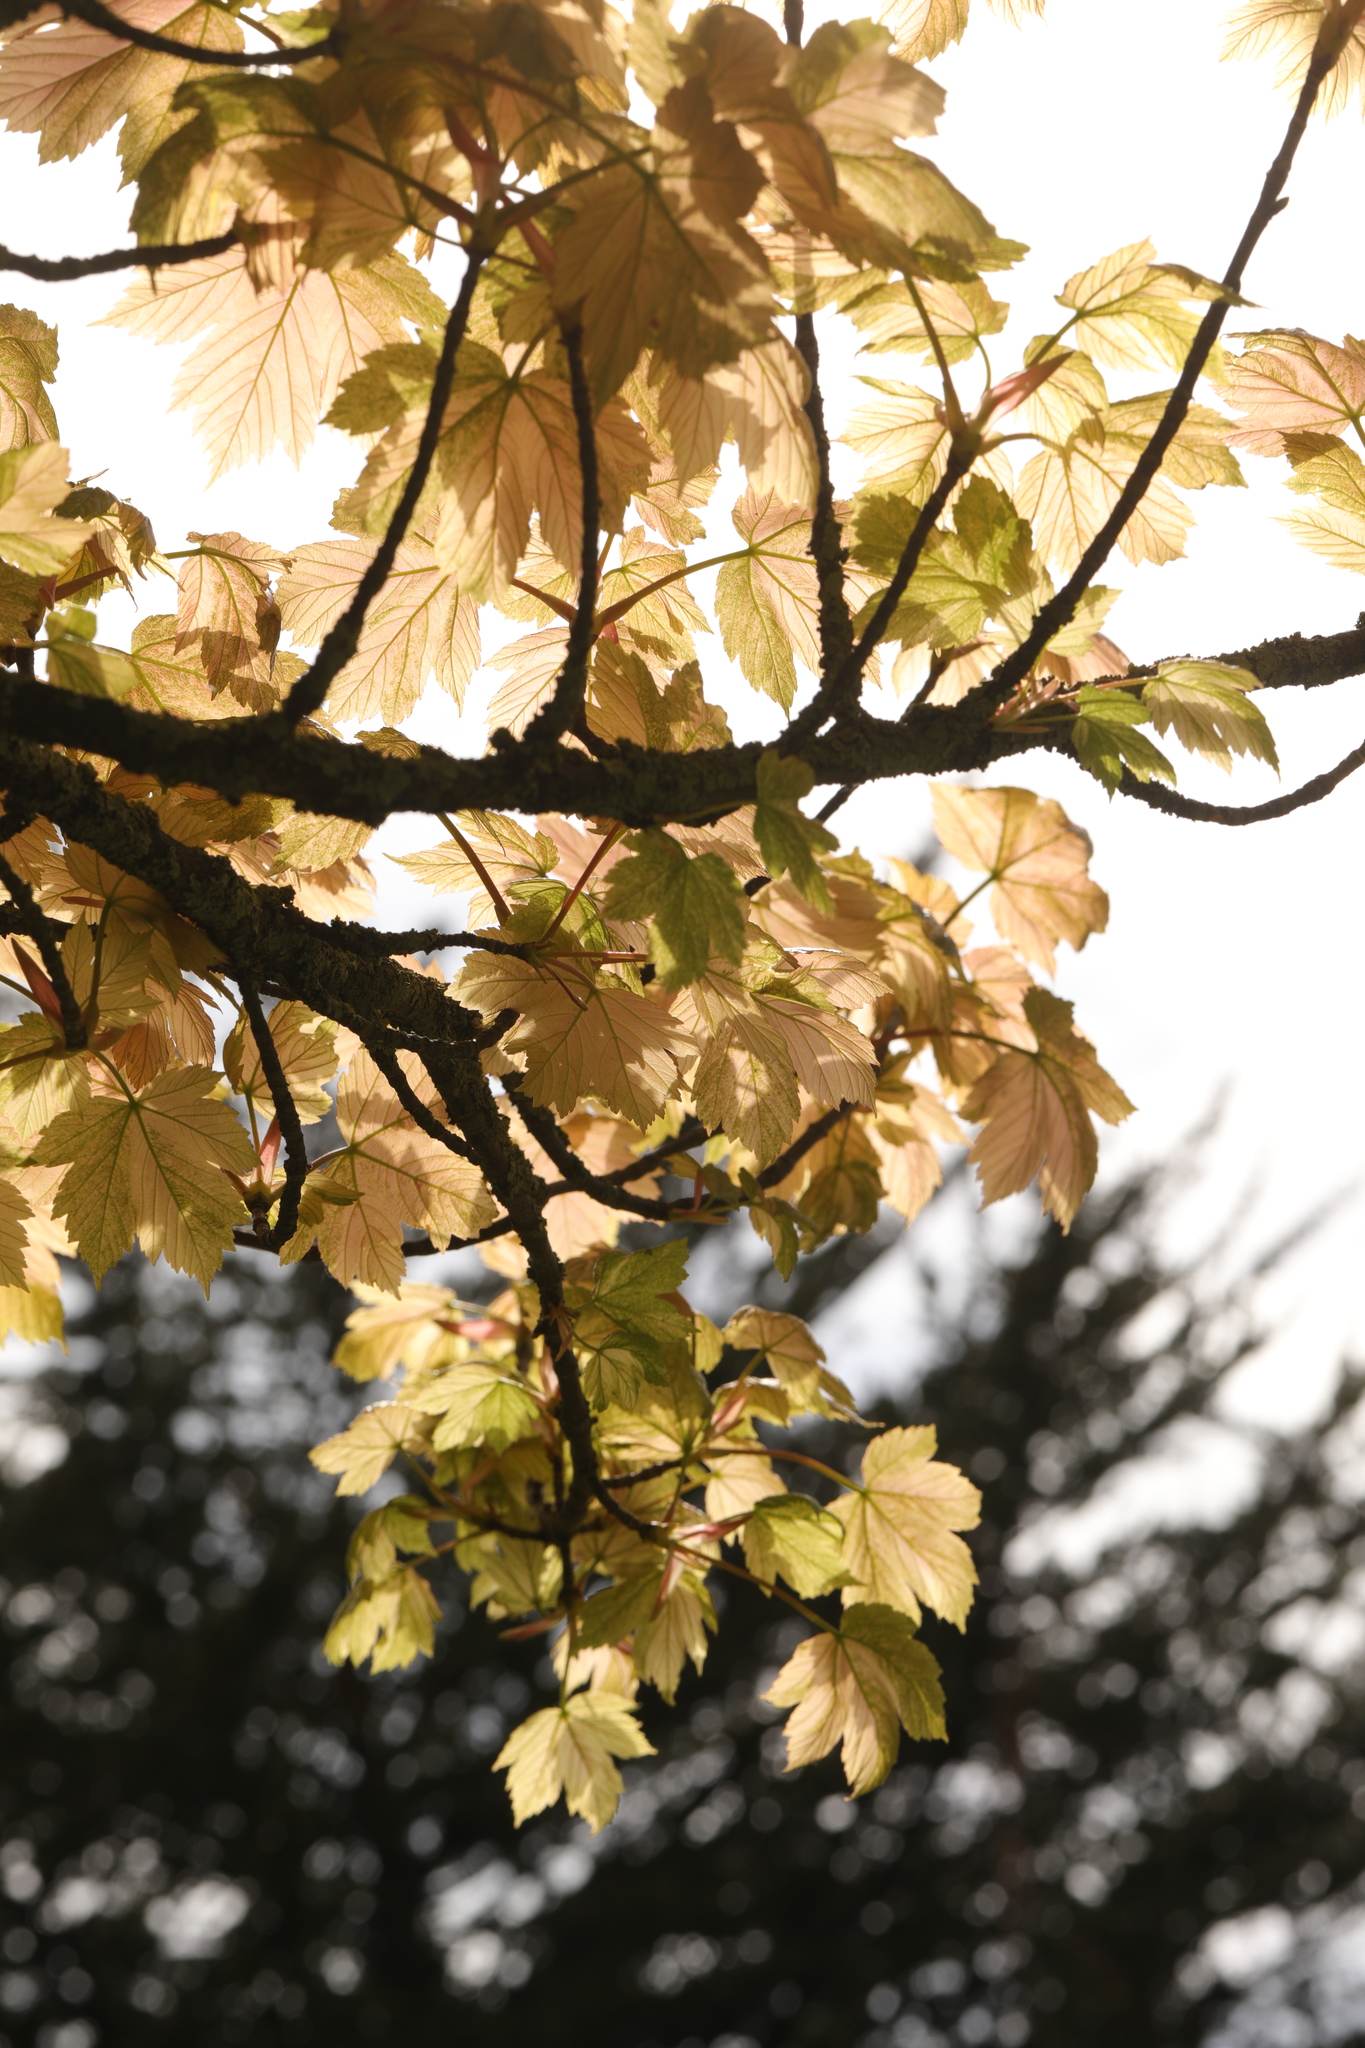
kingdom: Plantae
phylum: Tracheophyta
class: Magnoliopsida
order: Sapindales
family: Sapindaceae
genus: Acer
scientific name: Acer pseudoplatanus
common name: Sycamore
